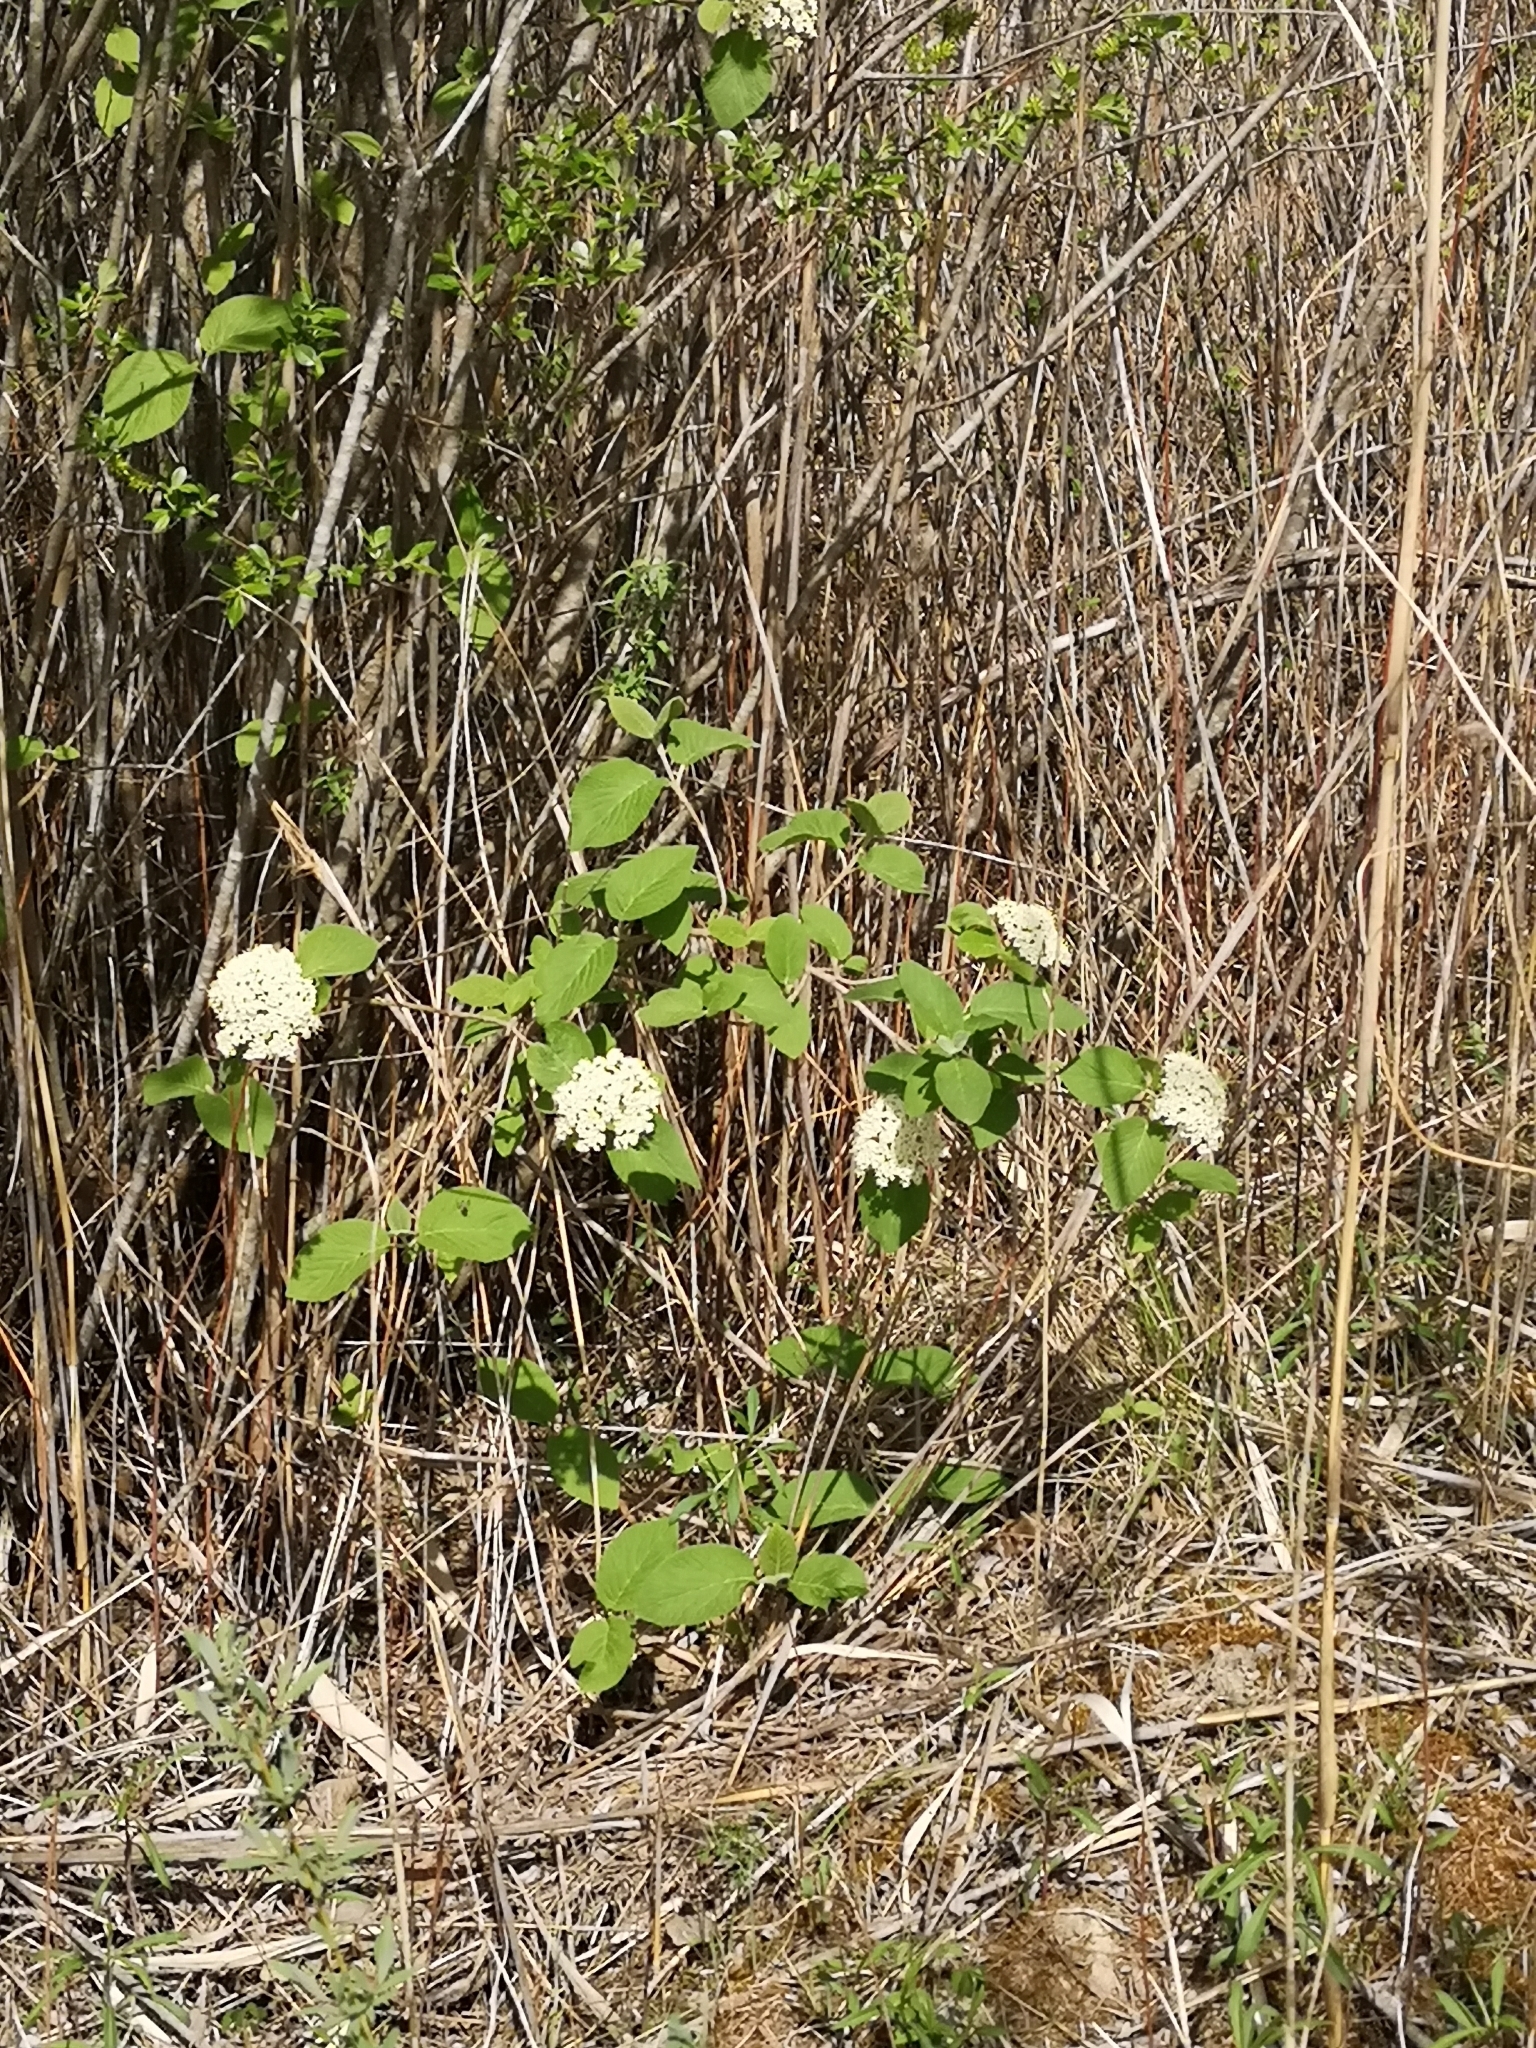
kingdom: Plantae
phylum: Tracheophyta
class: Magnoliopsida
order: Dipsacales
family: Viburnaceae
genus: Viburnum
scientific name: Viburnum lantana
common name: Wayfaring tree
